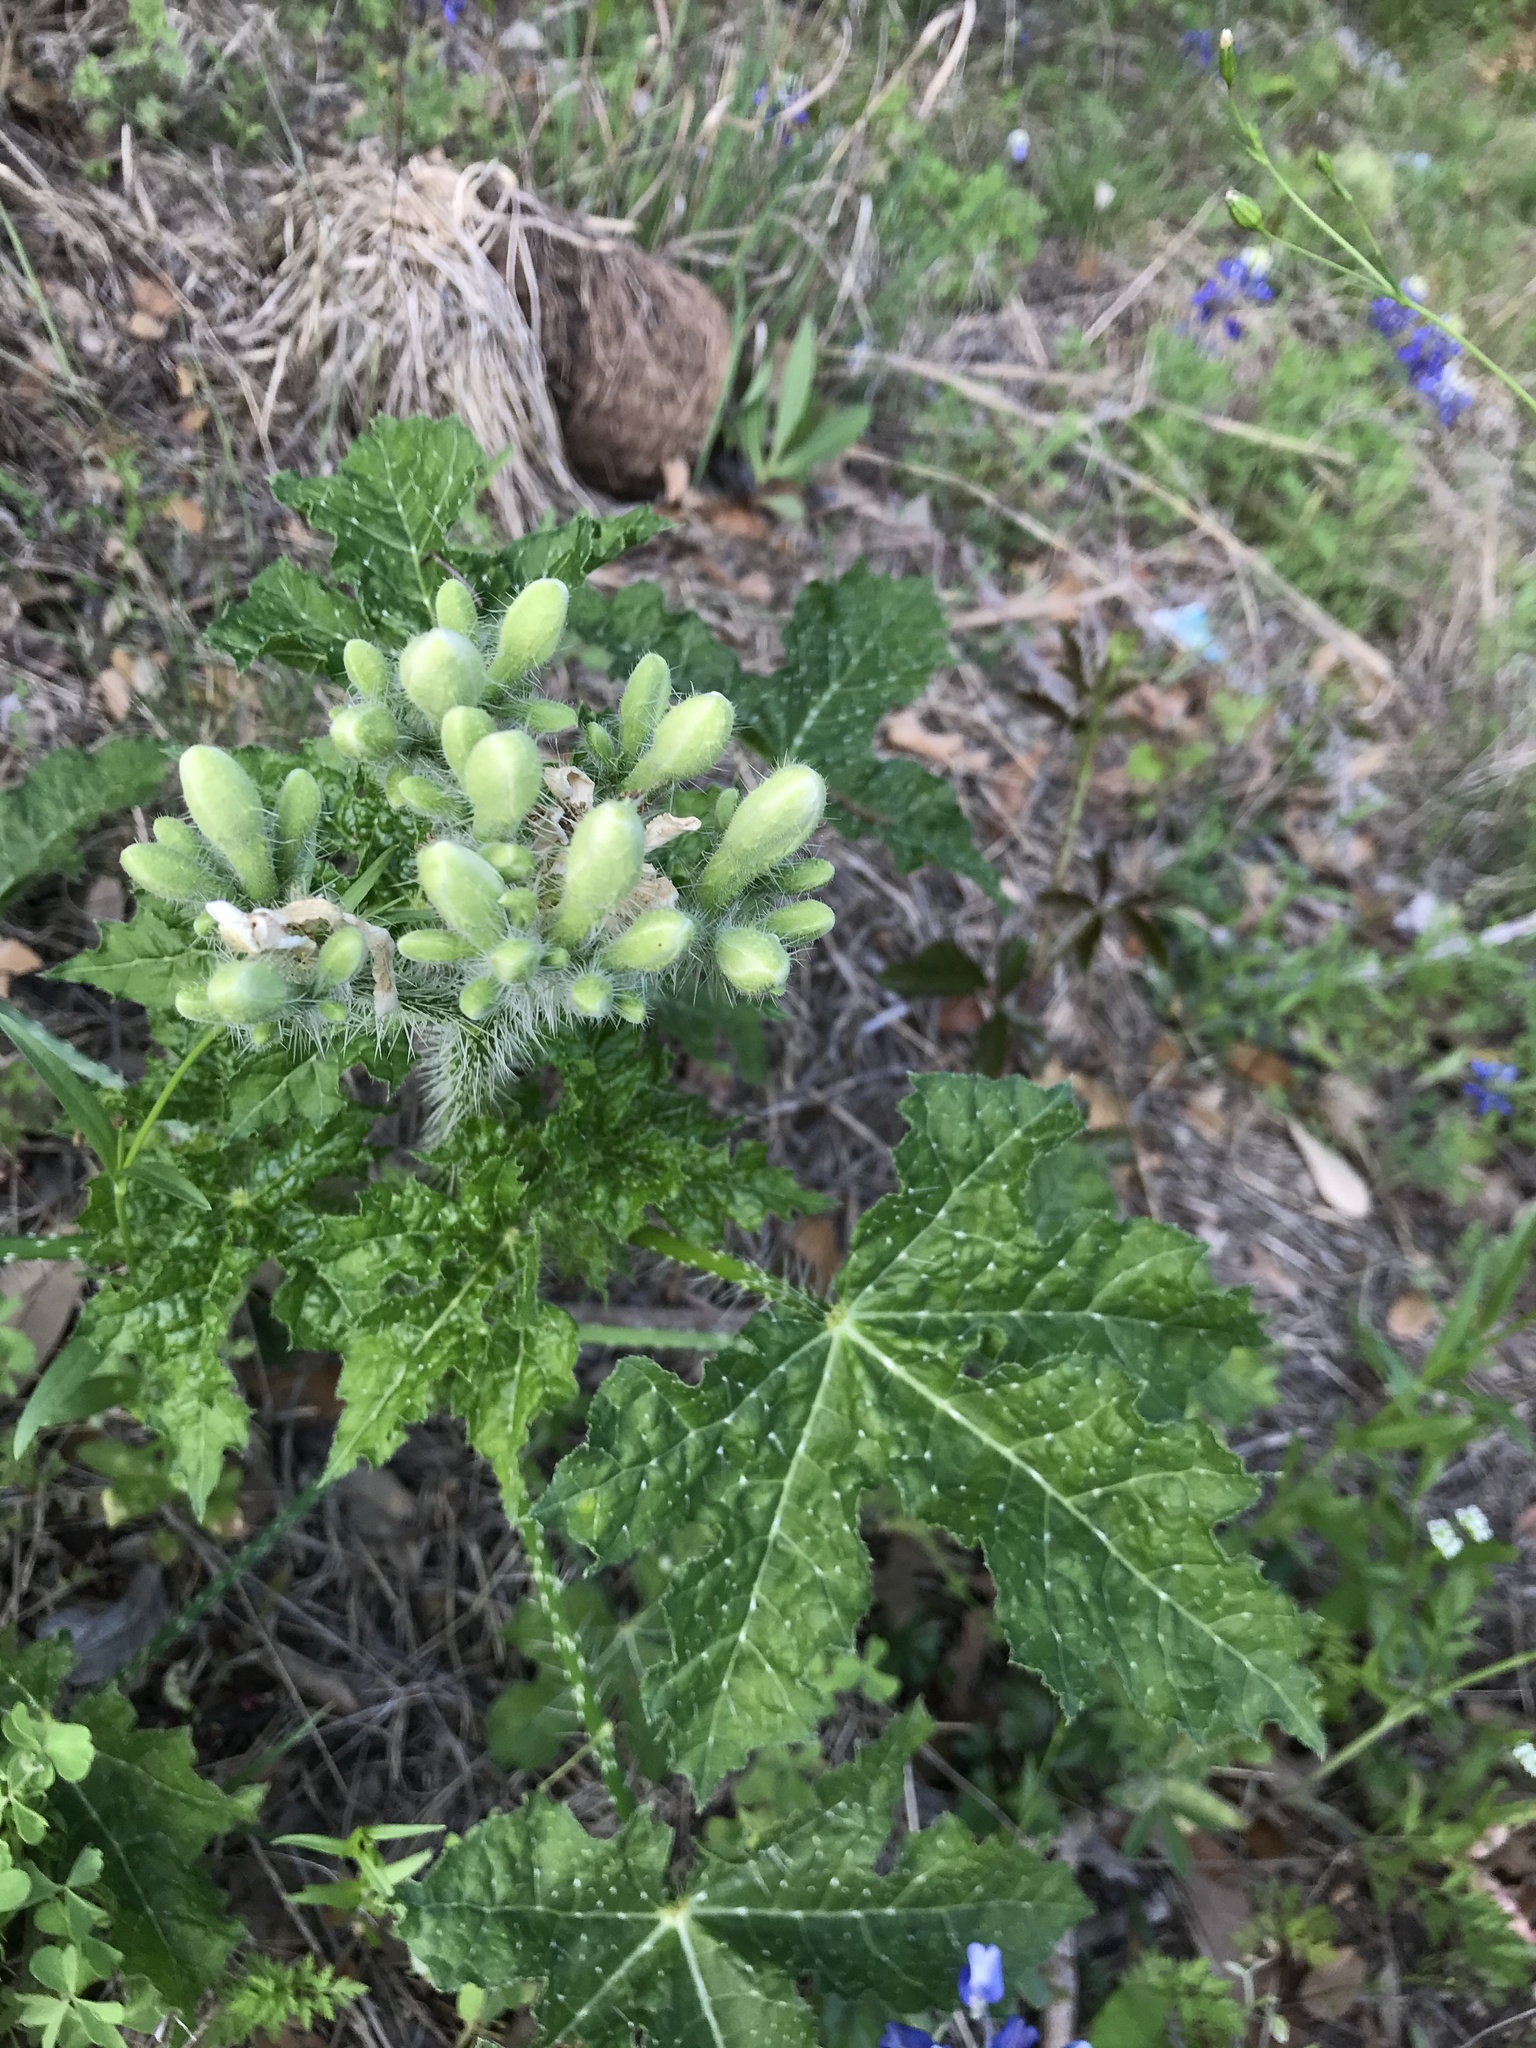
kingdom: Plantae
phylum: Tracheophyta
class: Magnoliopsida
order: Malpighiales
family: Euphorbiaceae
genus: Cnidoscolus
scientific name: Cnidoscolus texanus
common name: Texas bull-nettle
